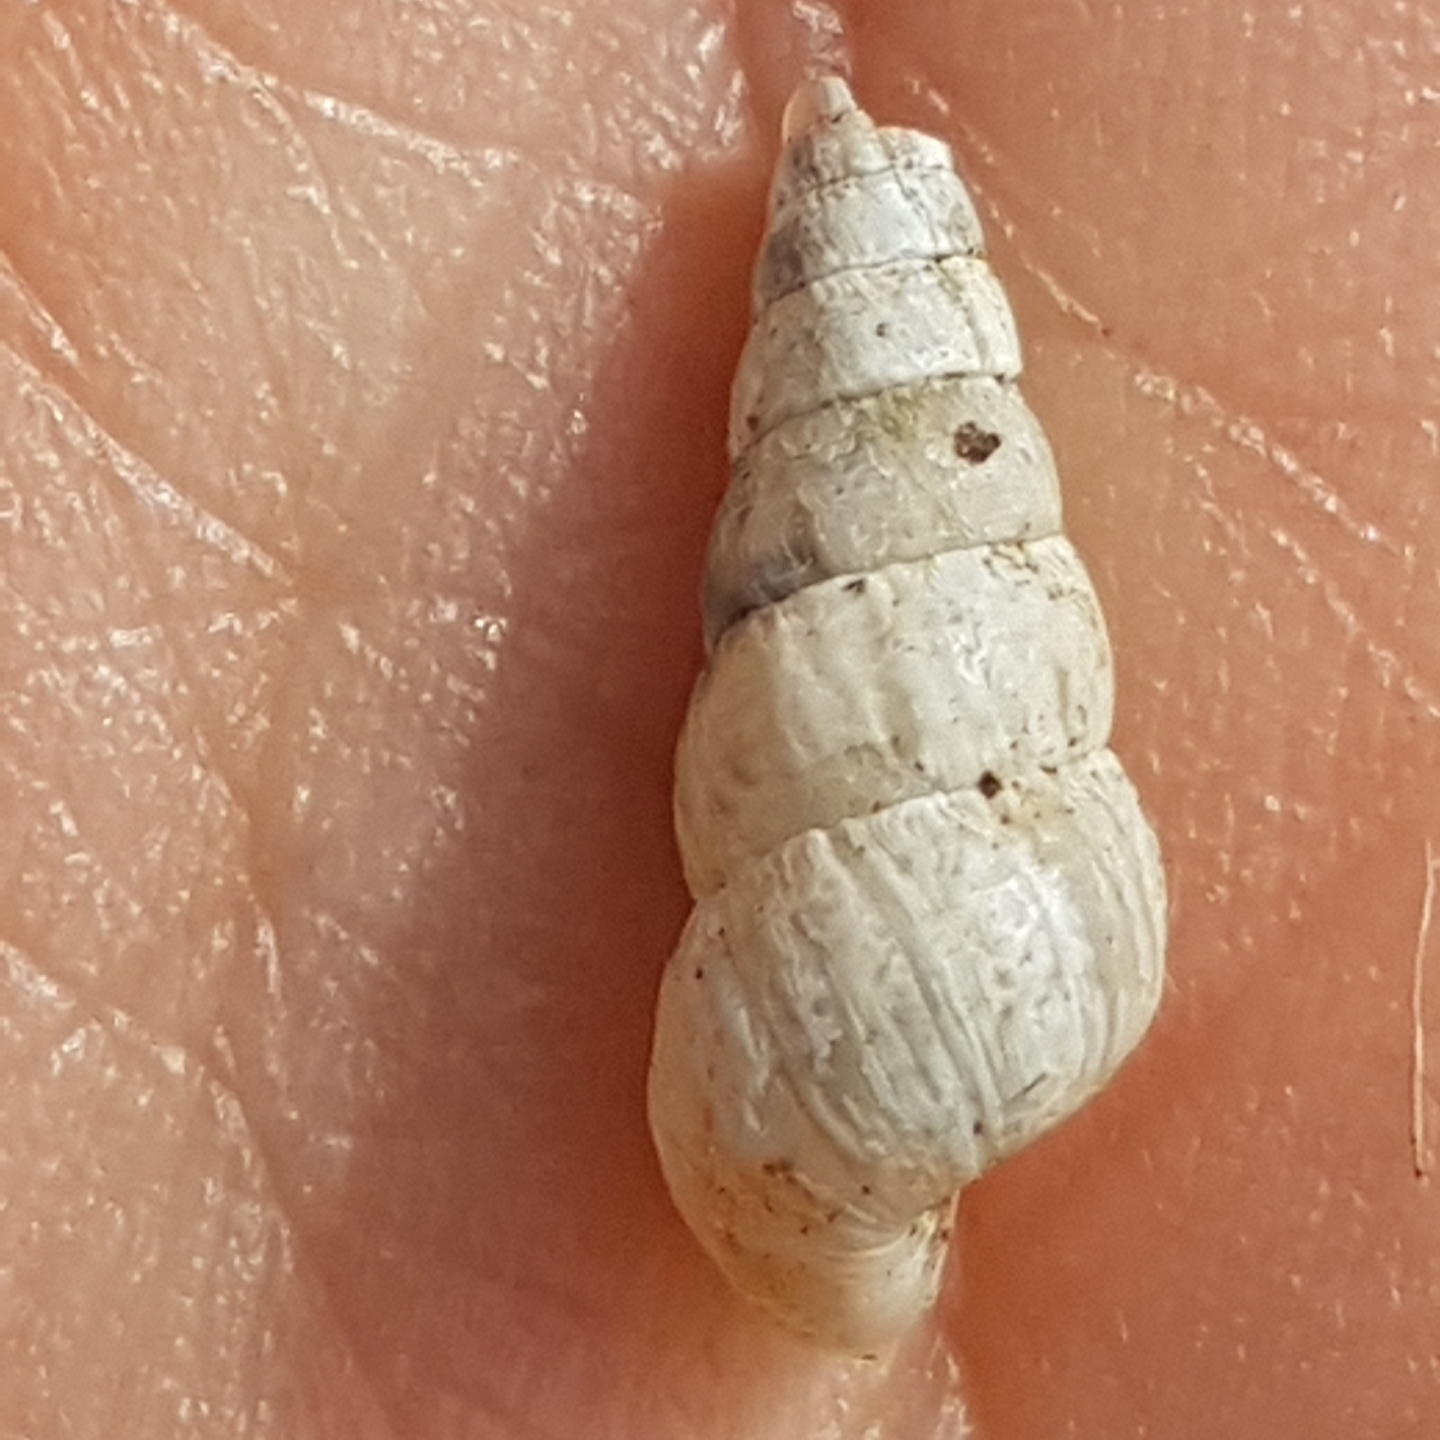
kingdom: Animalia
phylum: Mollusca
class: Gastropoda
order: Stylommatophora
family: Geomitridae
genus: Cochlicella
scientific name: Cochlicella acuta
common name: Pointed snail
